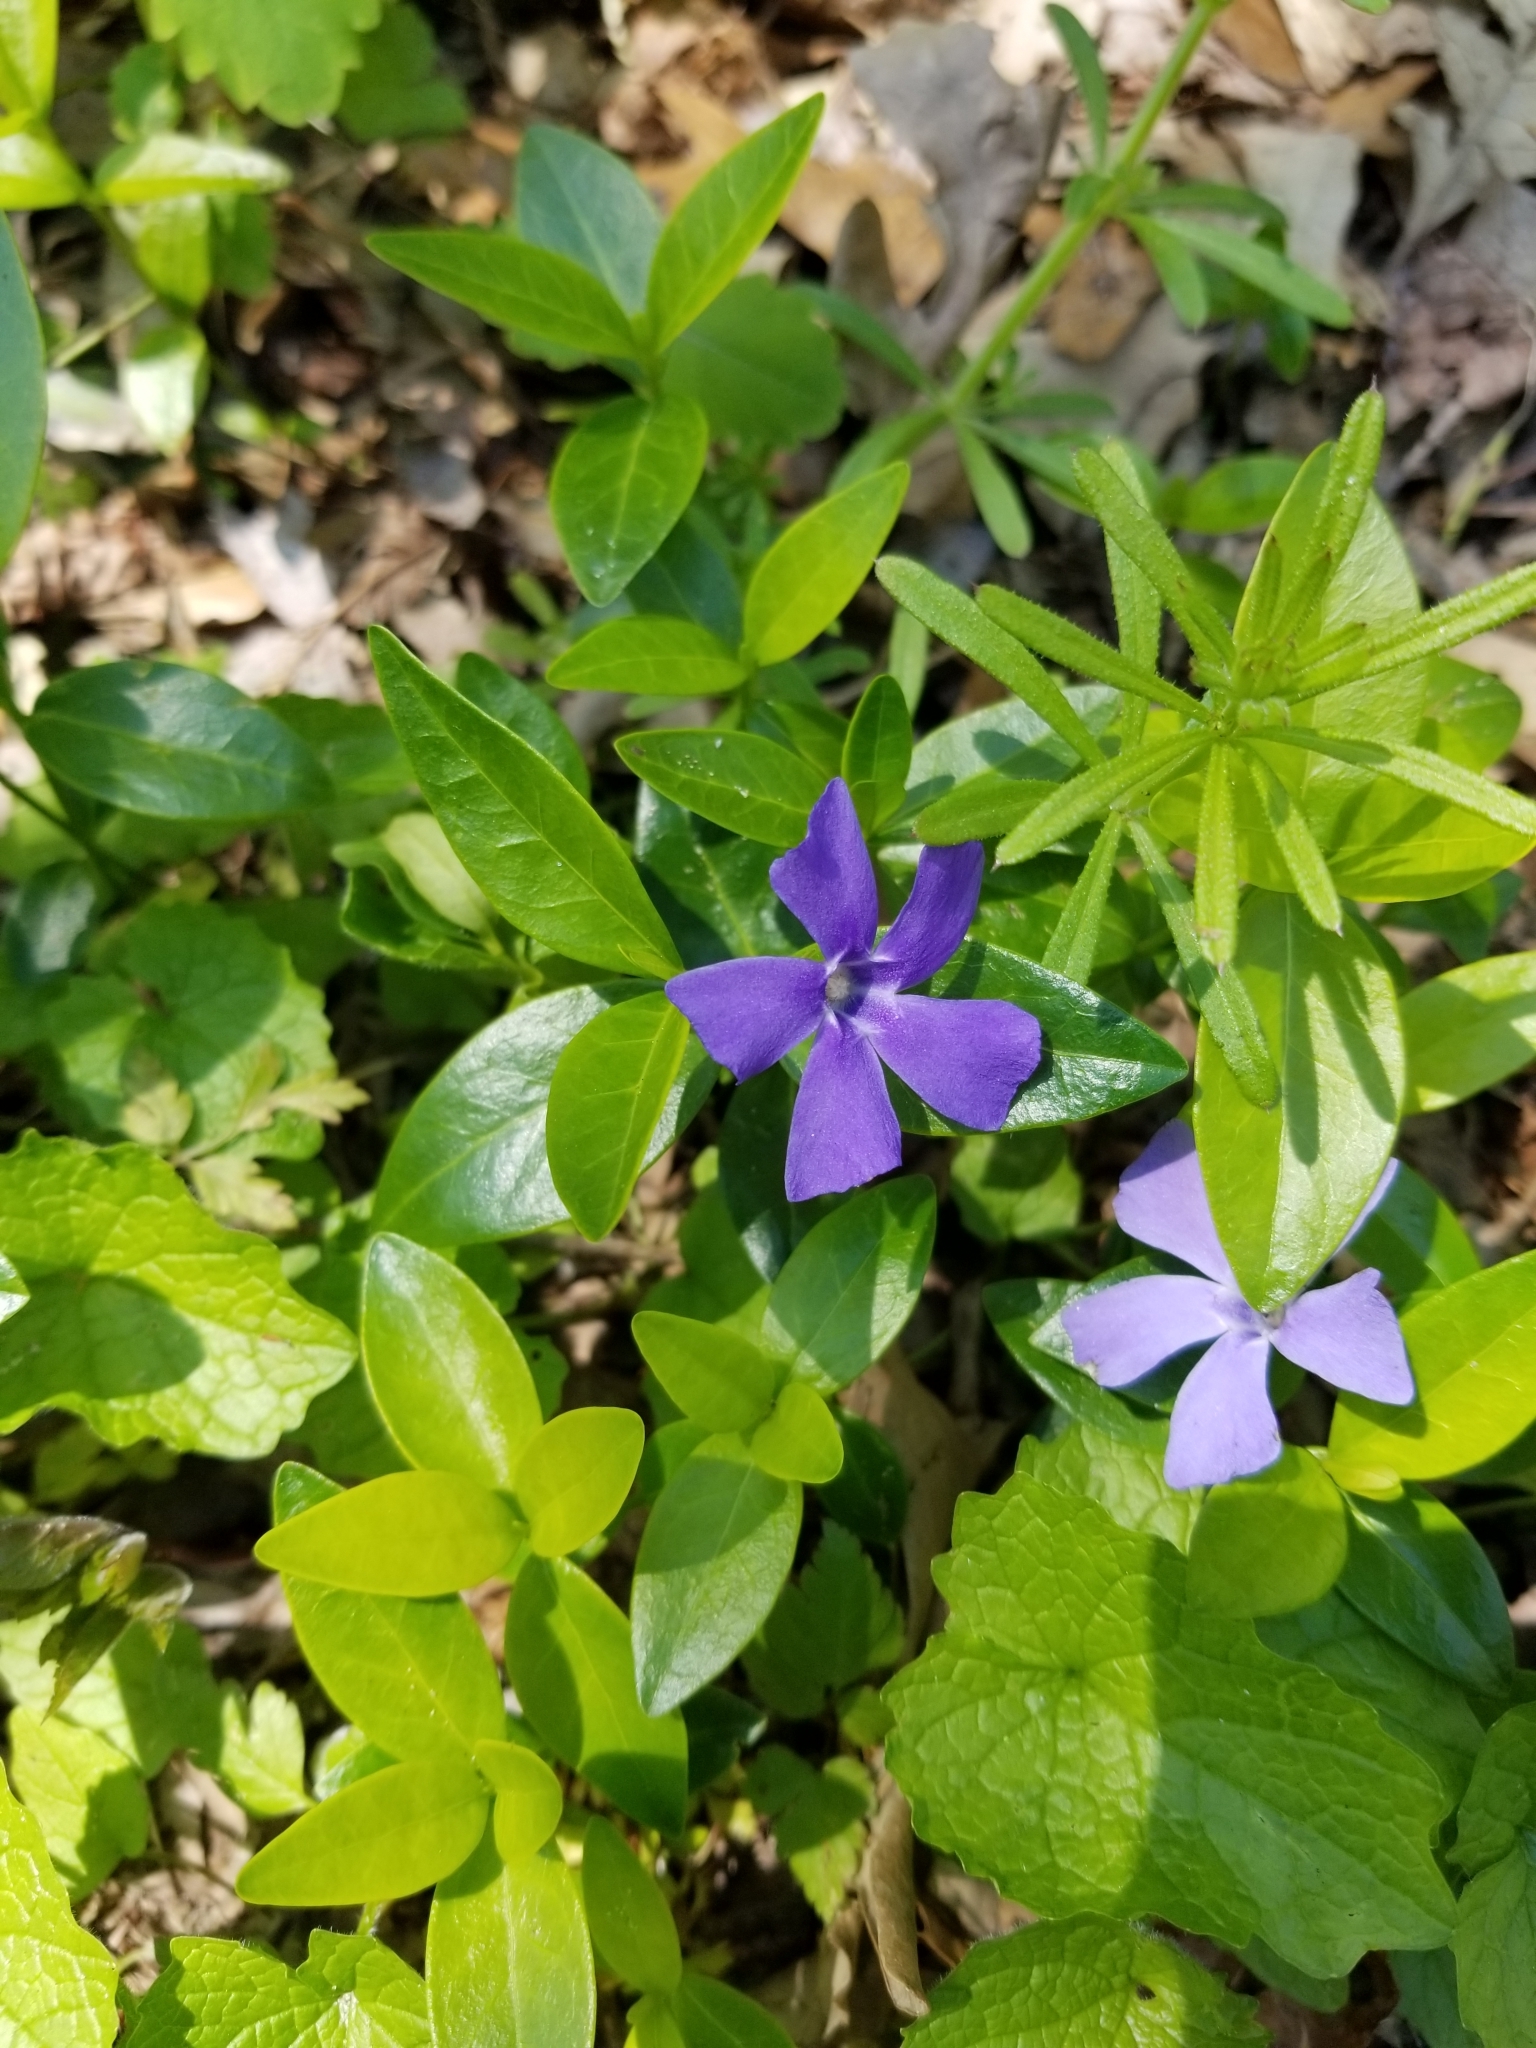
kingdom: Plantae
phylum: Tracheophyta
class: Magnoliopsida
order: Gentianales
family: Apocynaceae
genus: Vinca
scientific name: Vinca minor
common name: Lesser periwinkle
